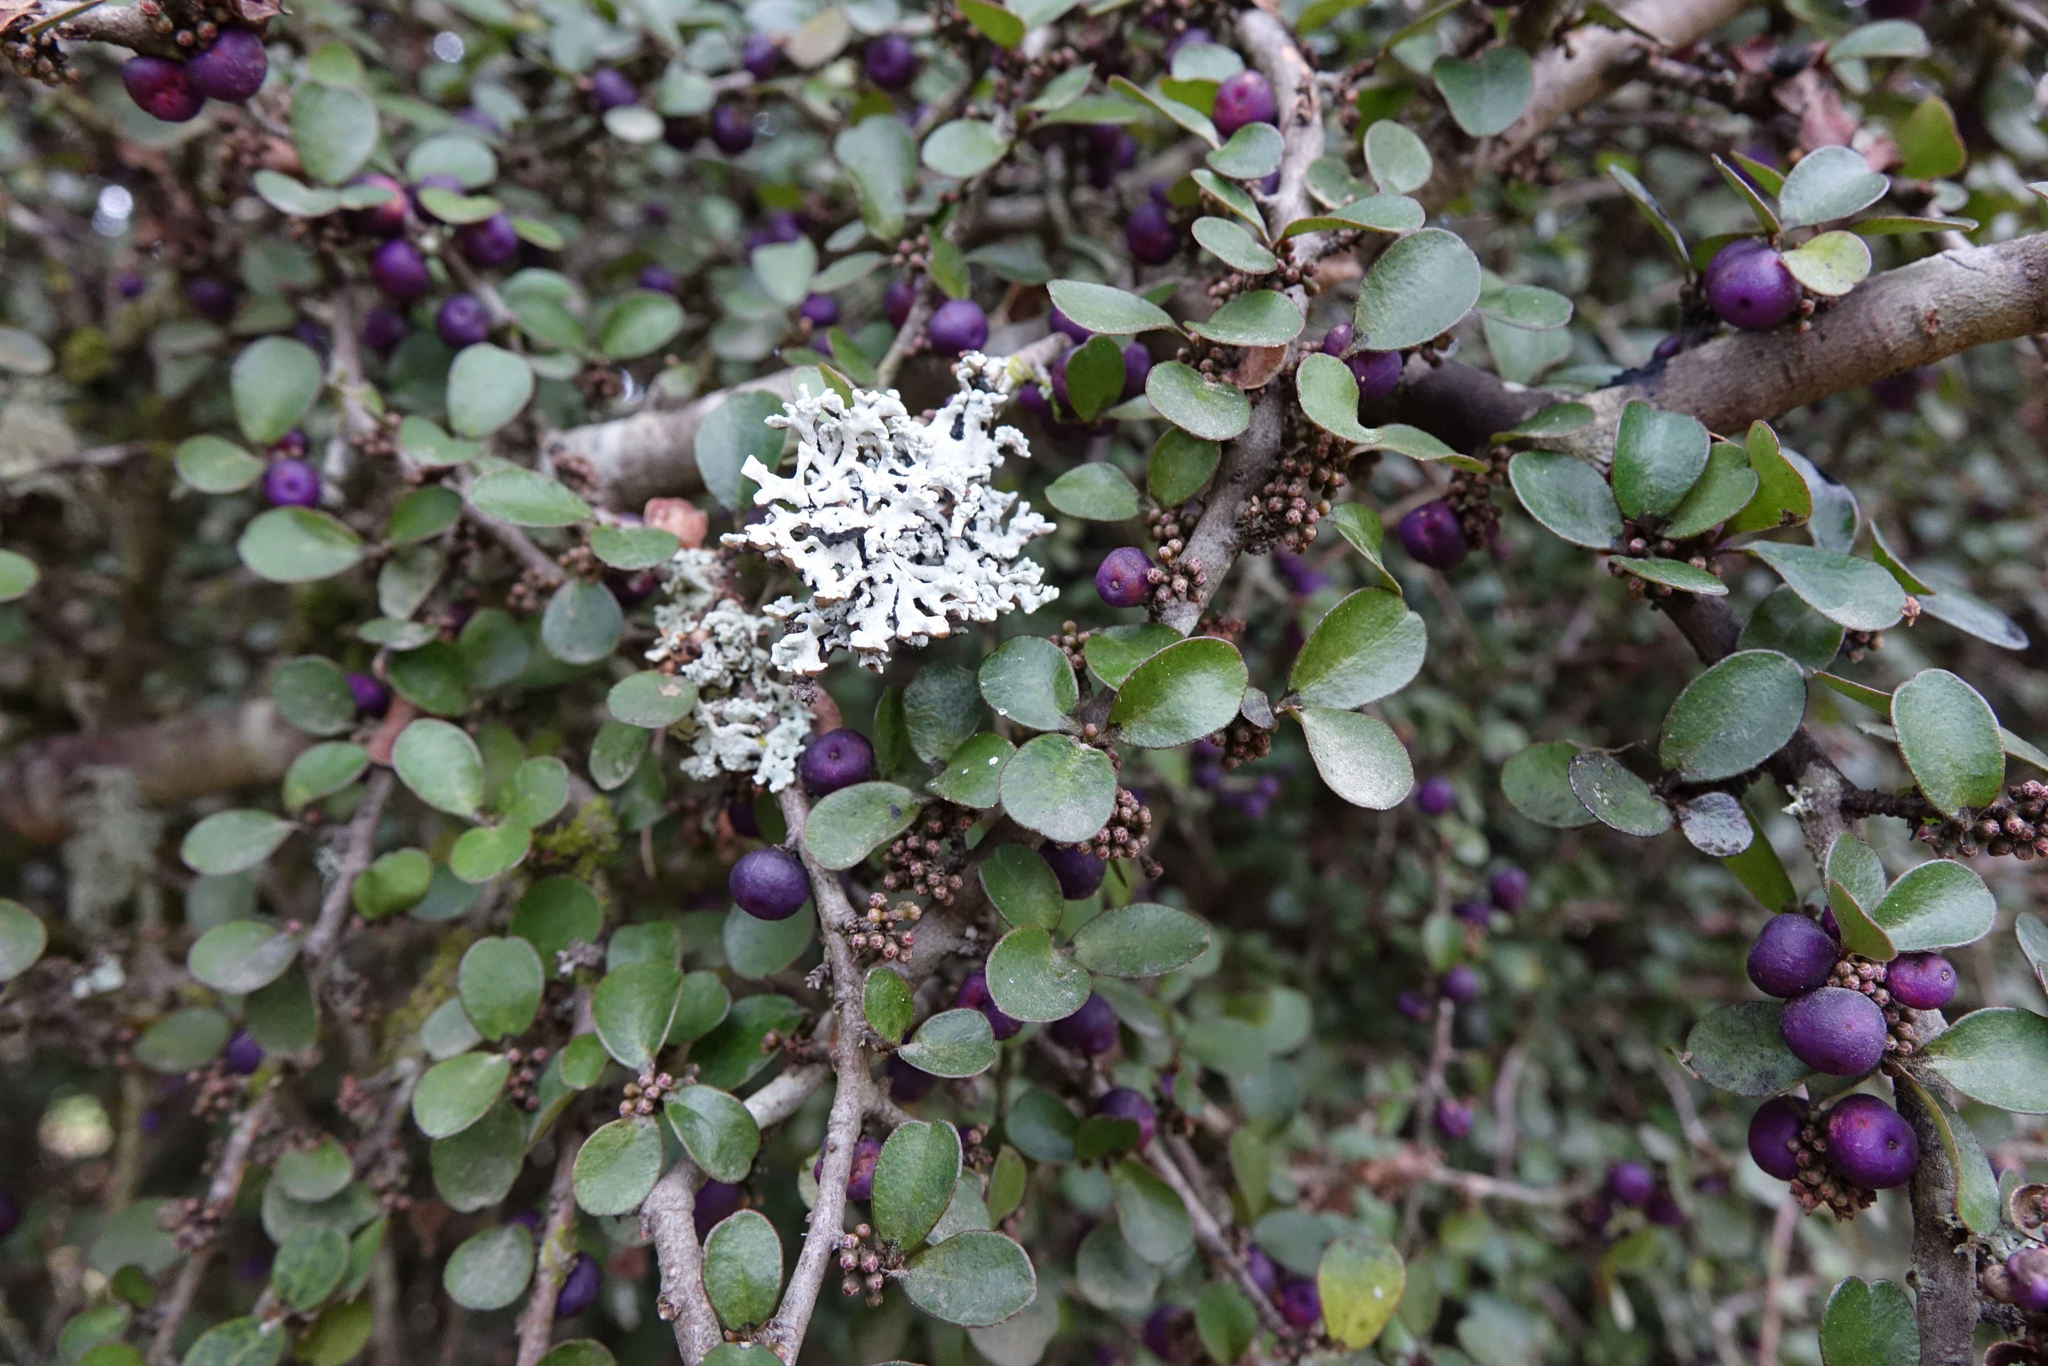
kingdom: Plantae
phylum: Tracheophyta
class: Magnoliopsida
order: Ericales
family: Primulaceae
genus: Myrsine
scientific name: Myrsine divaricata
